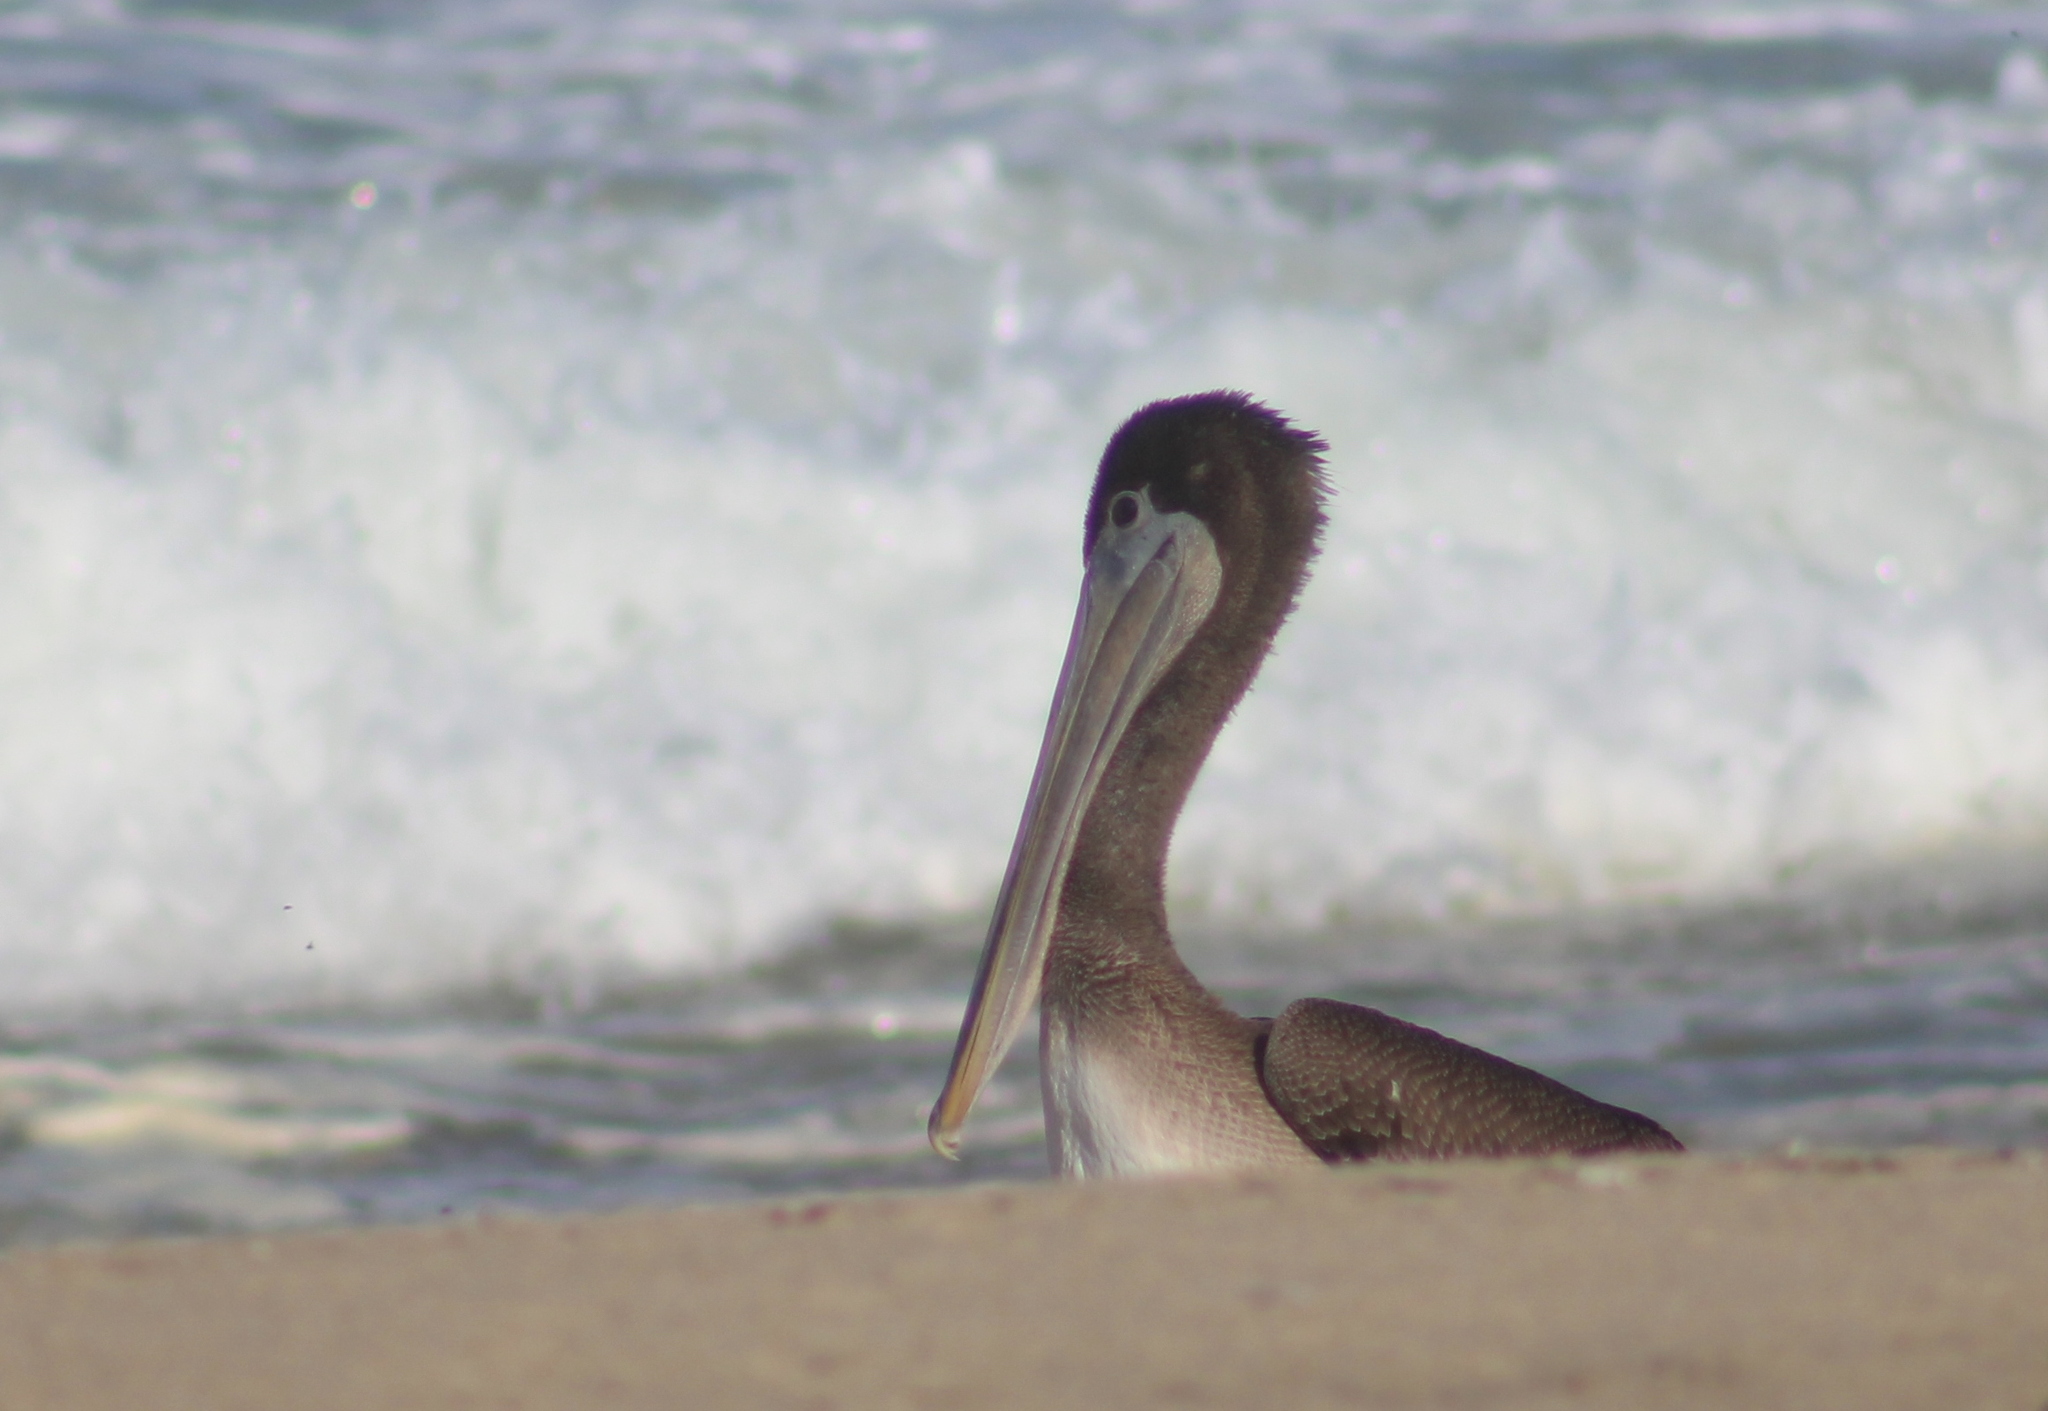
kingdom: Animalia
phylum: Chordata
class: Aves
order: Pelecaniformes
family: Pelecanidae
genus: Pelecanus
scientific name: Pelecanus occidentalis
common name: Brown pelican
